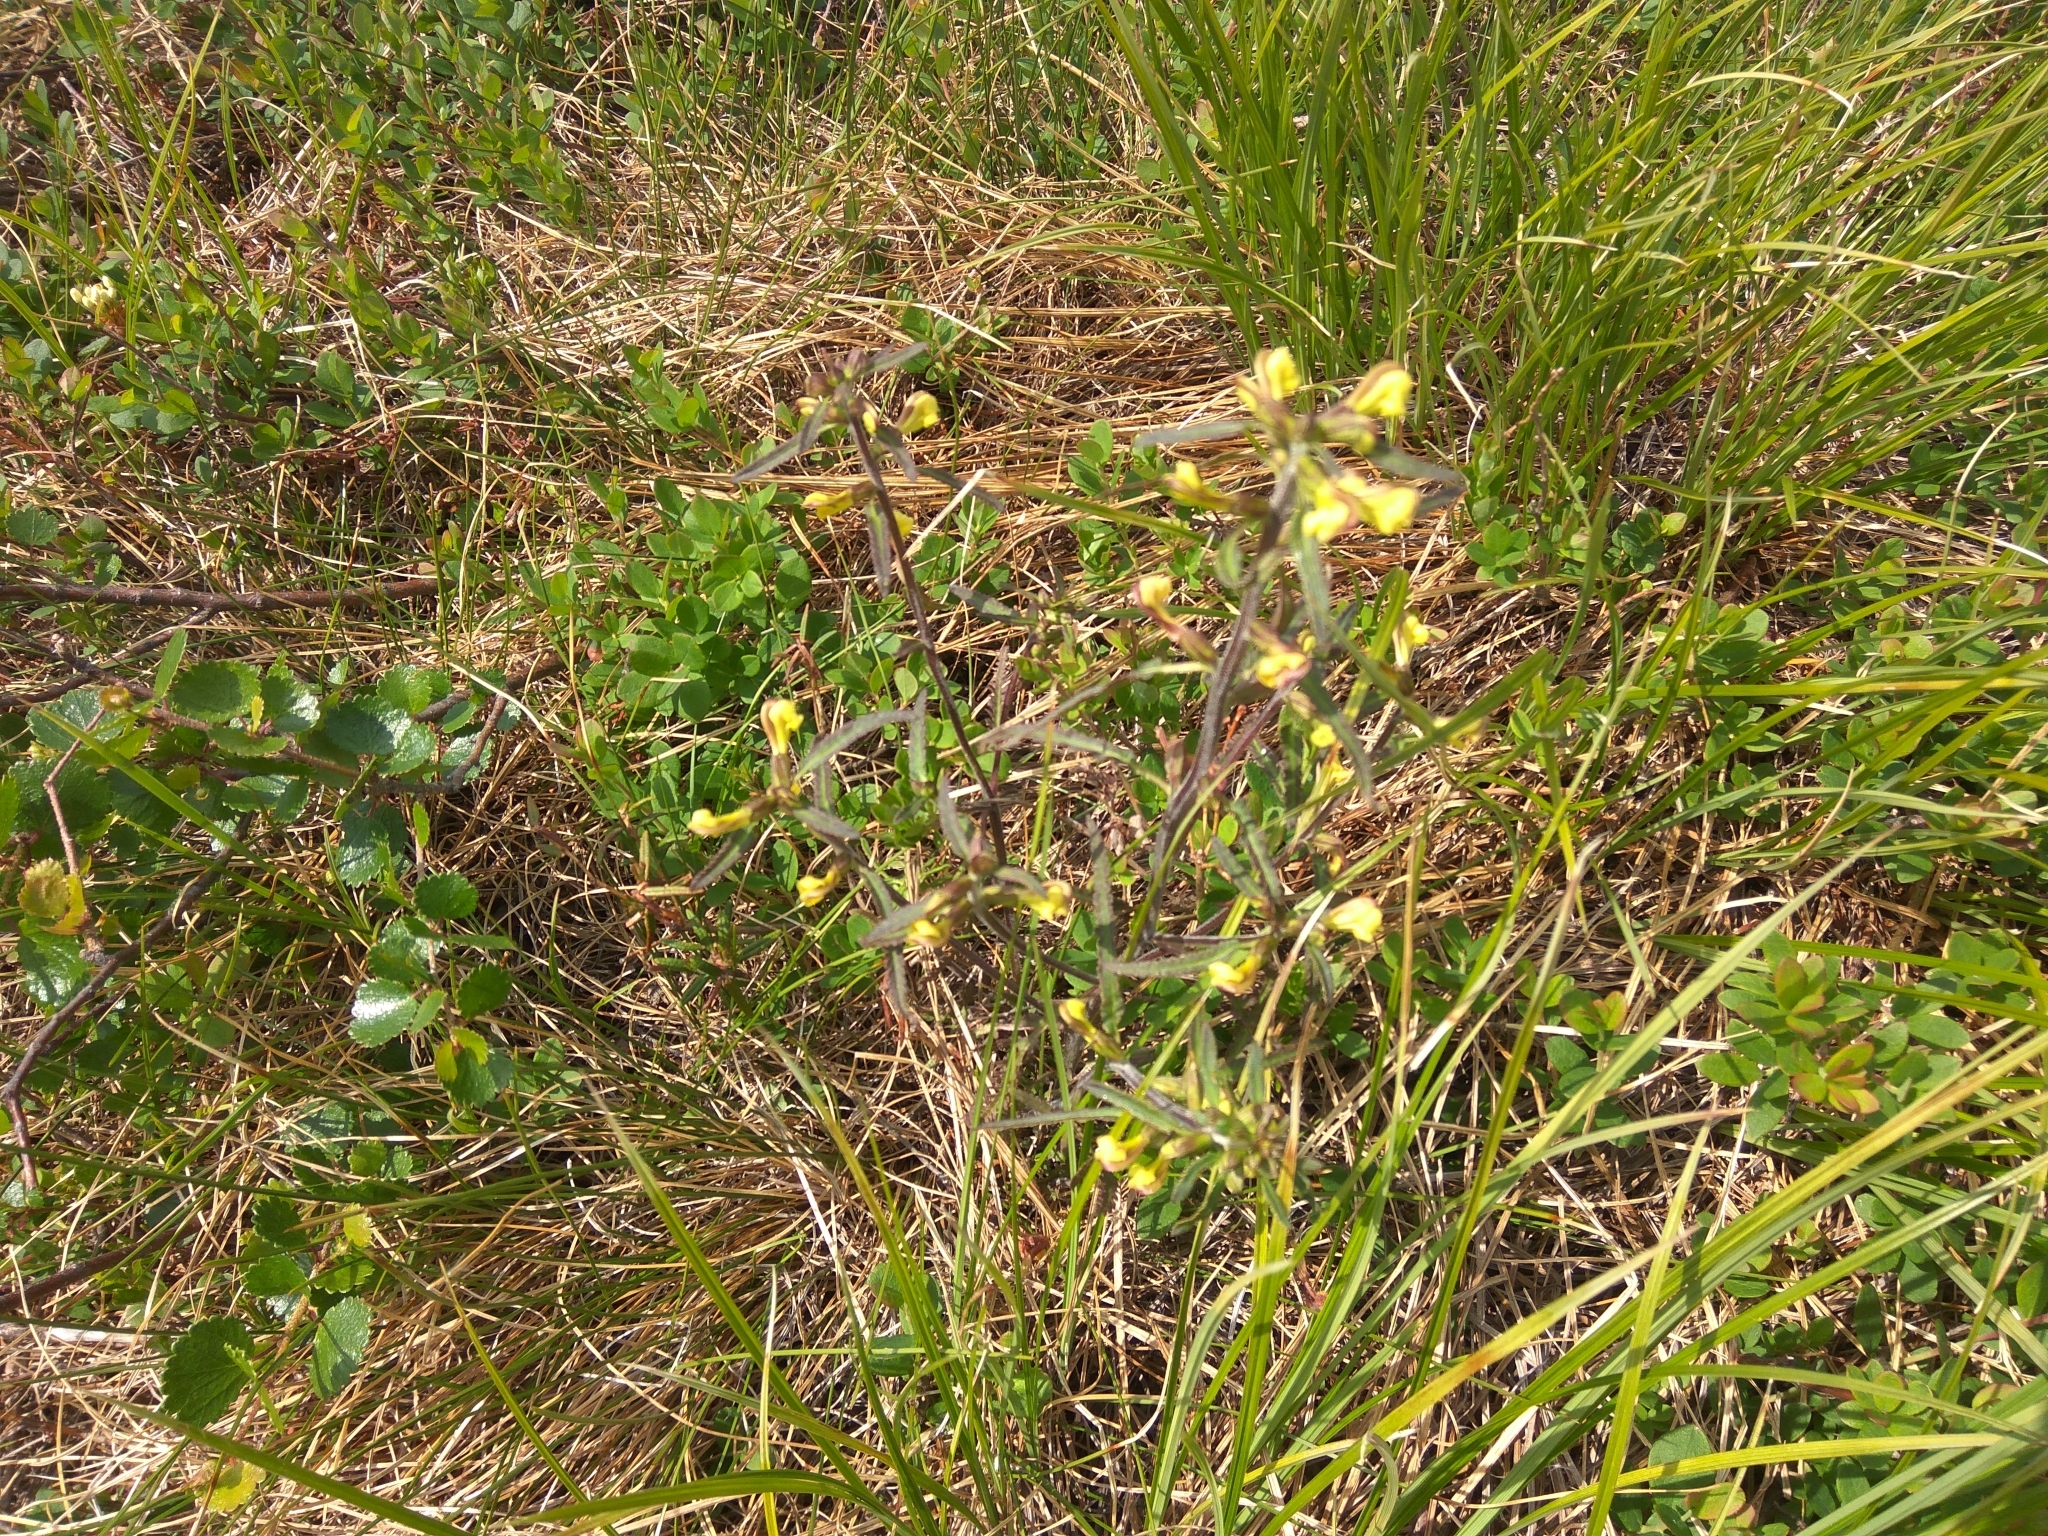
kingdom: Plantae
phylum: Tracheophyta
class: Magnoliopsida
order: Lamiales
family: Orobanchaceae
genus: Pedicularis
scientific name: Pedicularis labradorica
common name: Labrador lousewort
